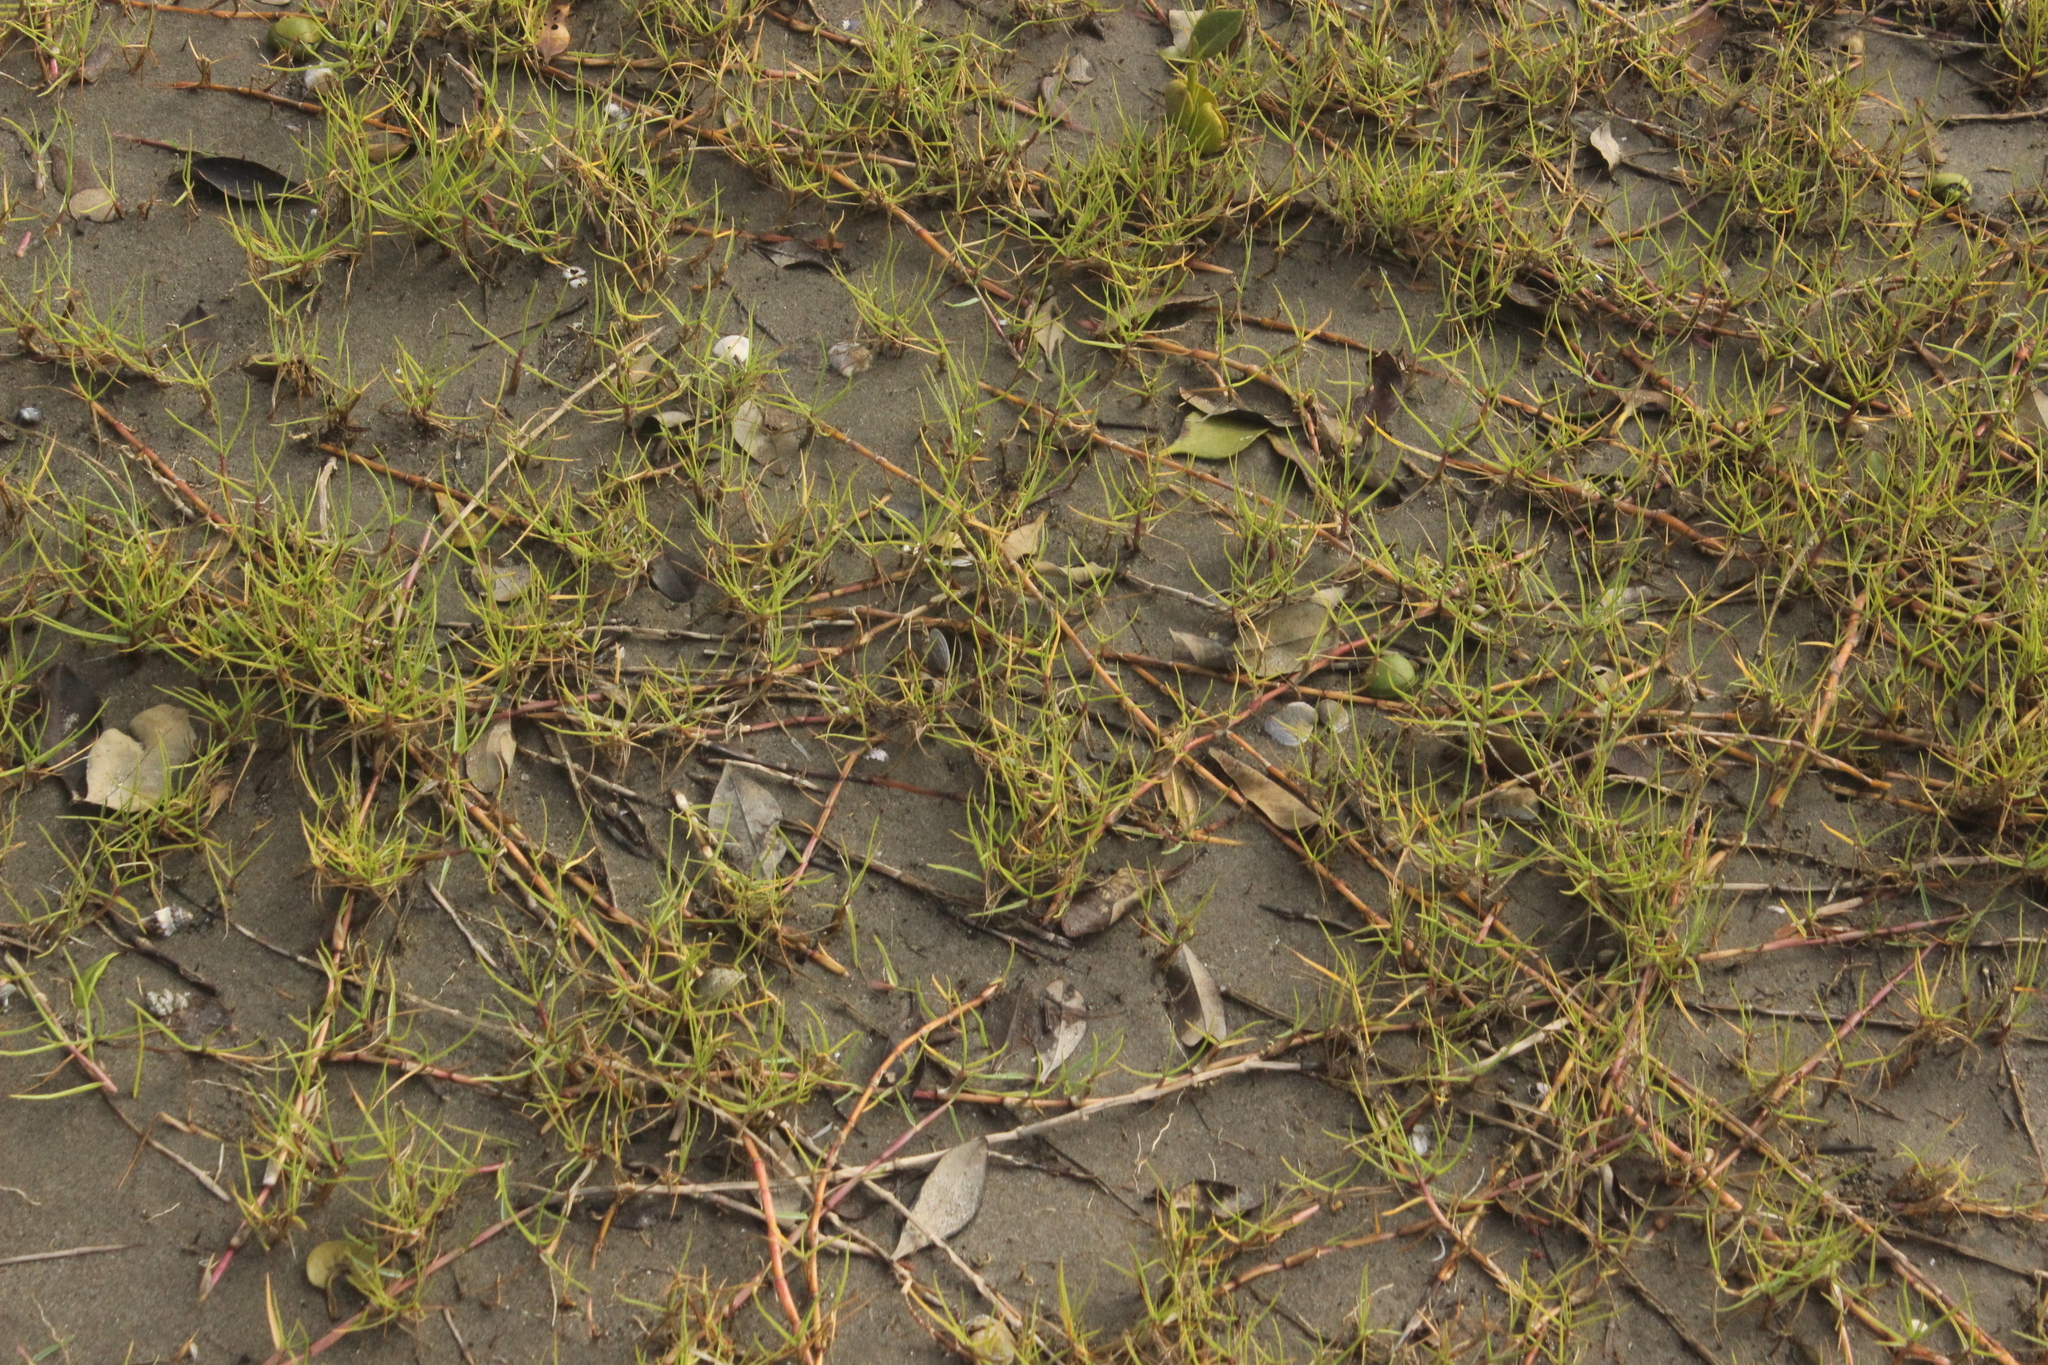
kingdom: Plantae
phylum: Tracheophyta
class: Liliopsida
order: Poales
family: Poaceae
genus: Cynodon
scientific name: Cynodon dactylon
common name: Bermuda grass
